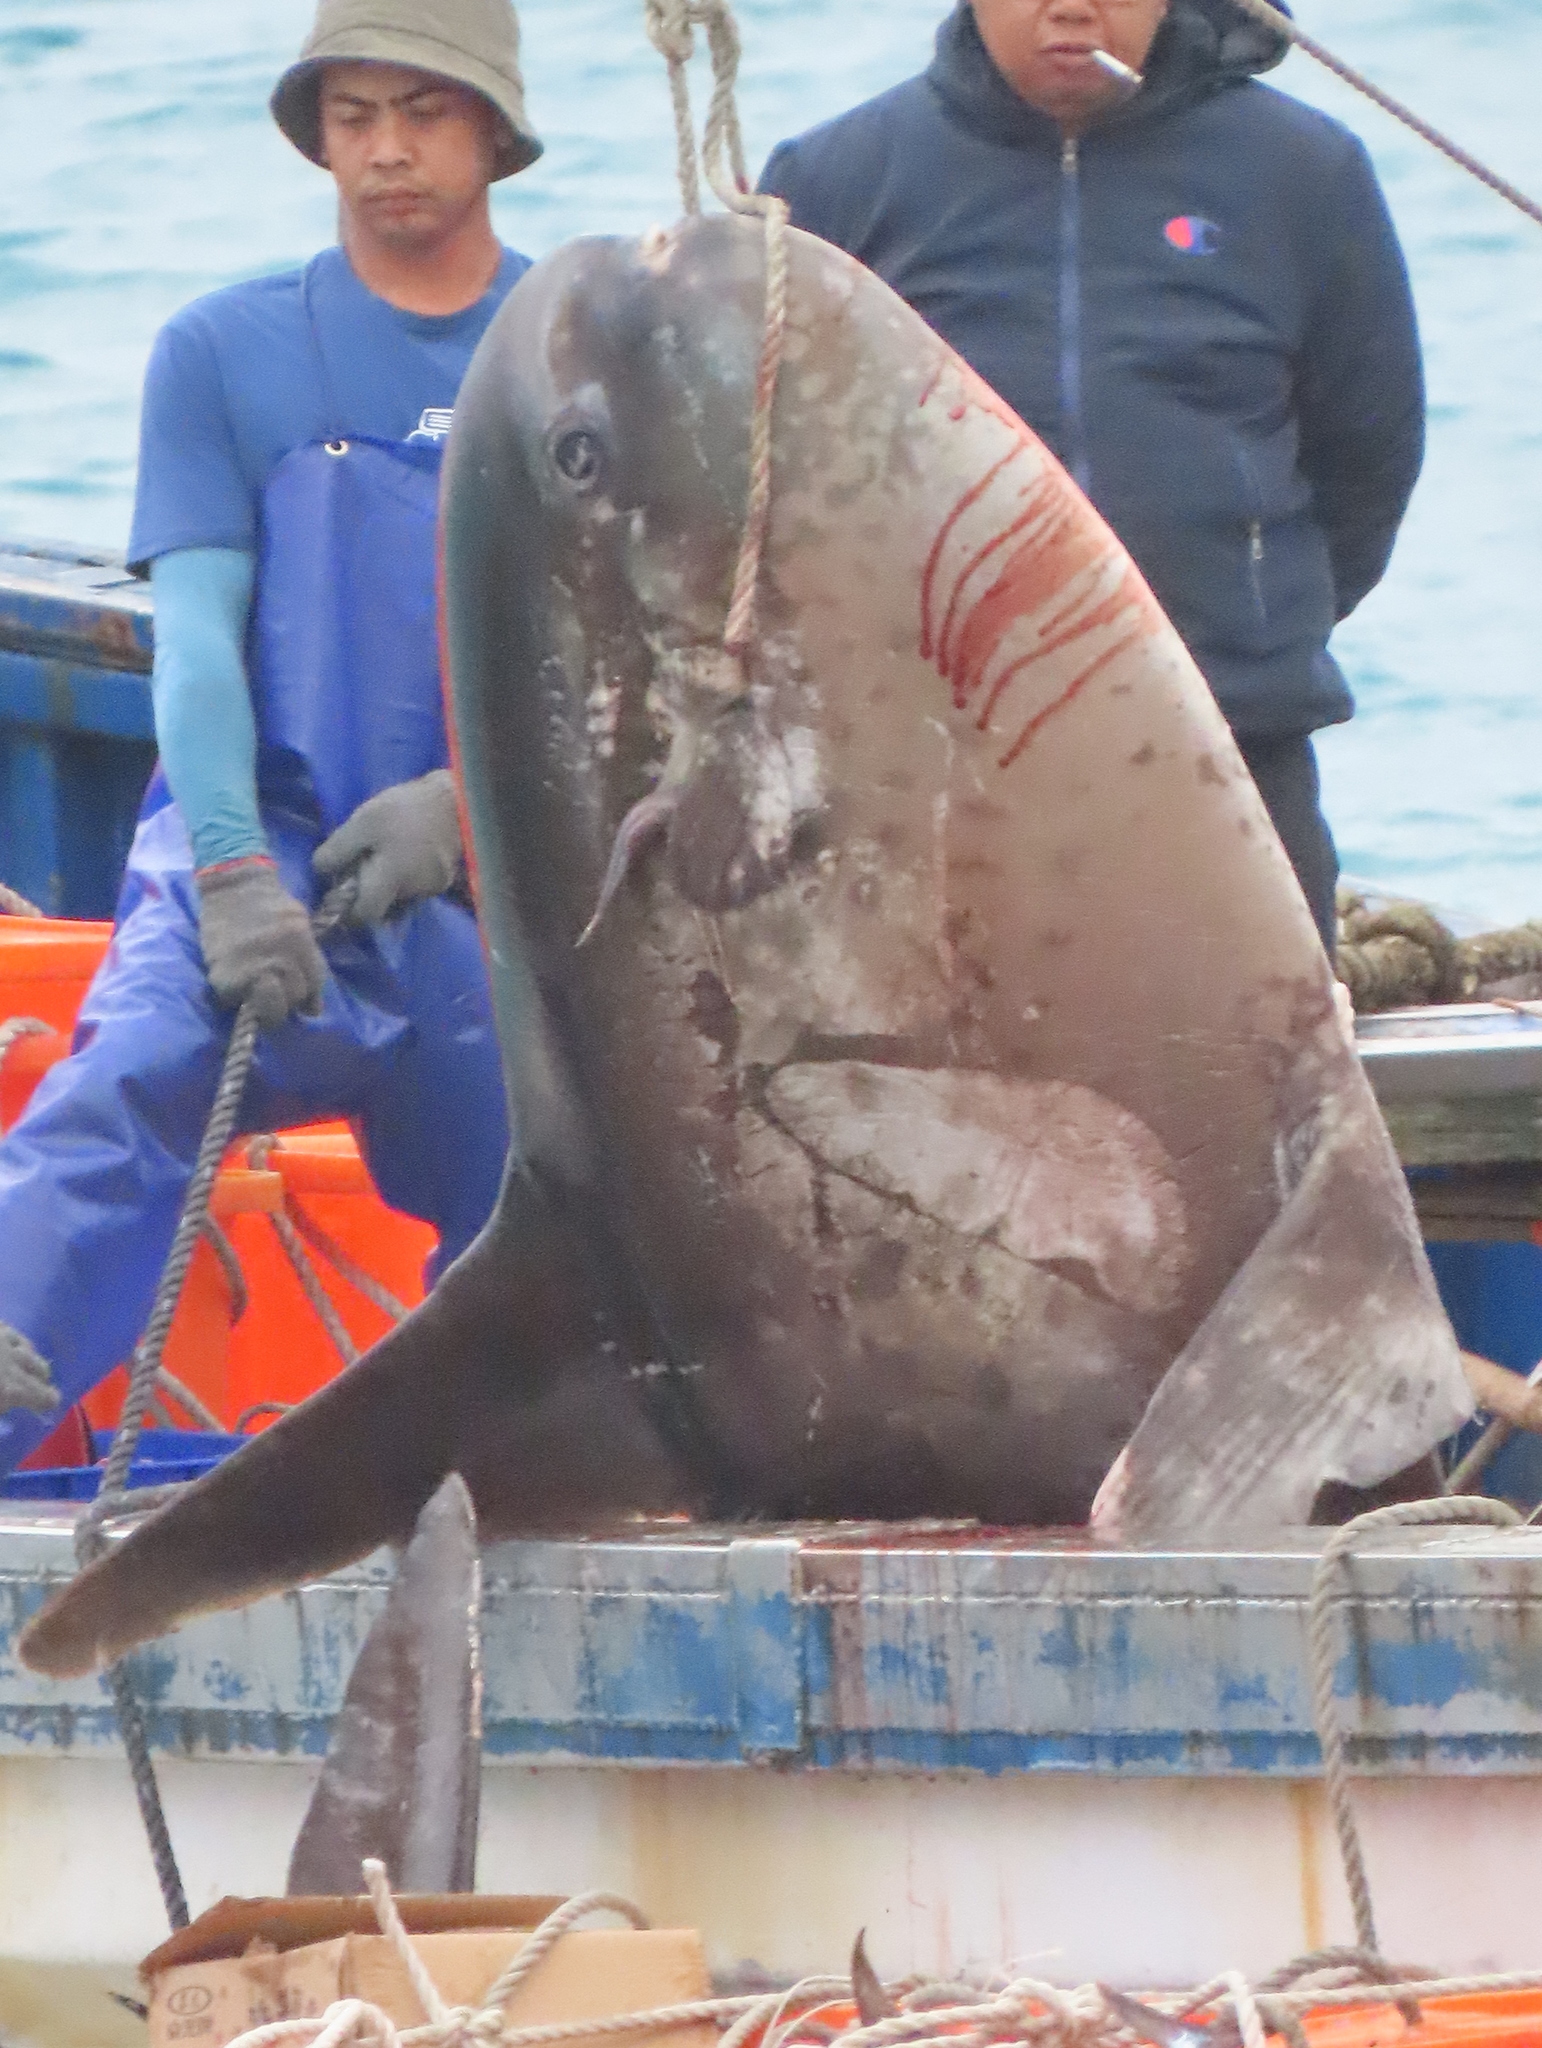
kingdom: Animalia
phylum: Chordata
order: Tetraodontiformes
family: Molidae
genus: Masturus
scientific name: Masturus lanceolatus
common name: Sharpfin sunfish
